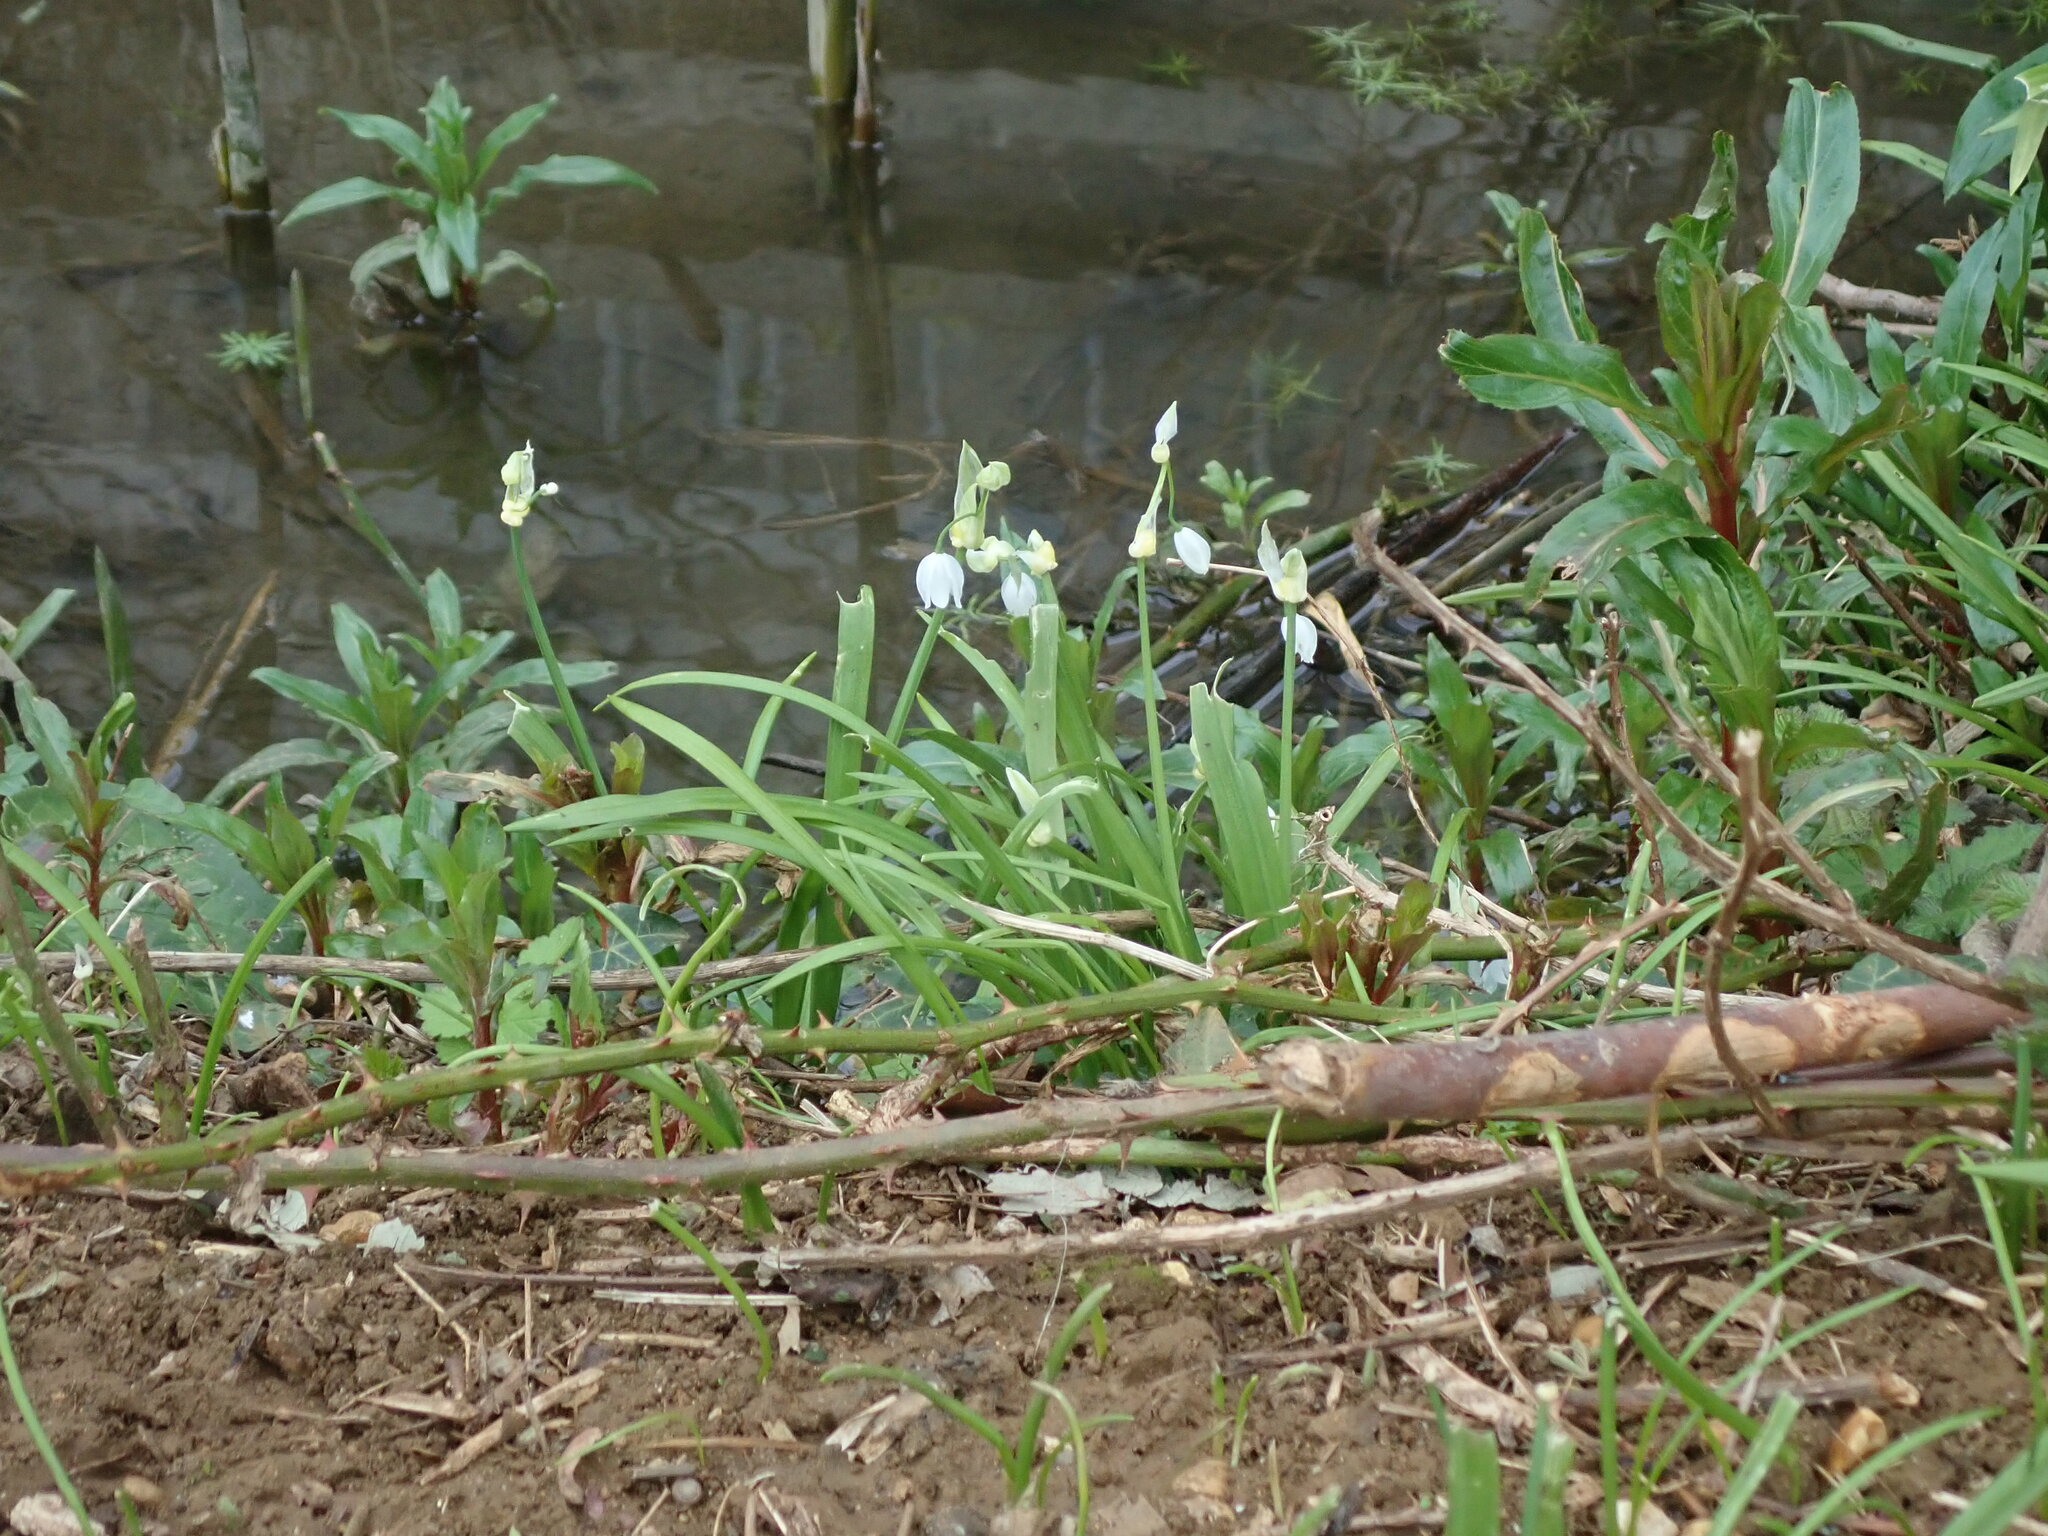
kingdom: Plantae
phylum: Tracheophyta
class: Liliopsida
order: Asparagales
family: Amaryllidaceae
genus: Allium
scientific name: Allium paradoxum
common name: Few-flowered garlic
